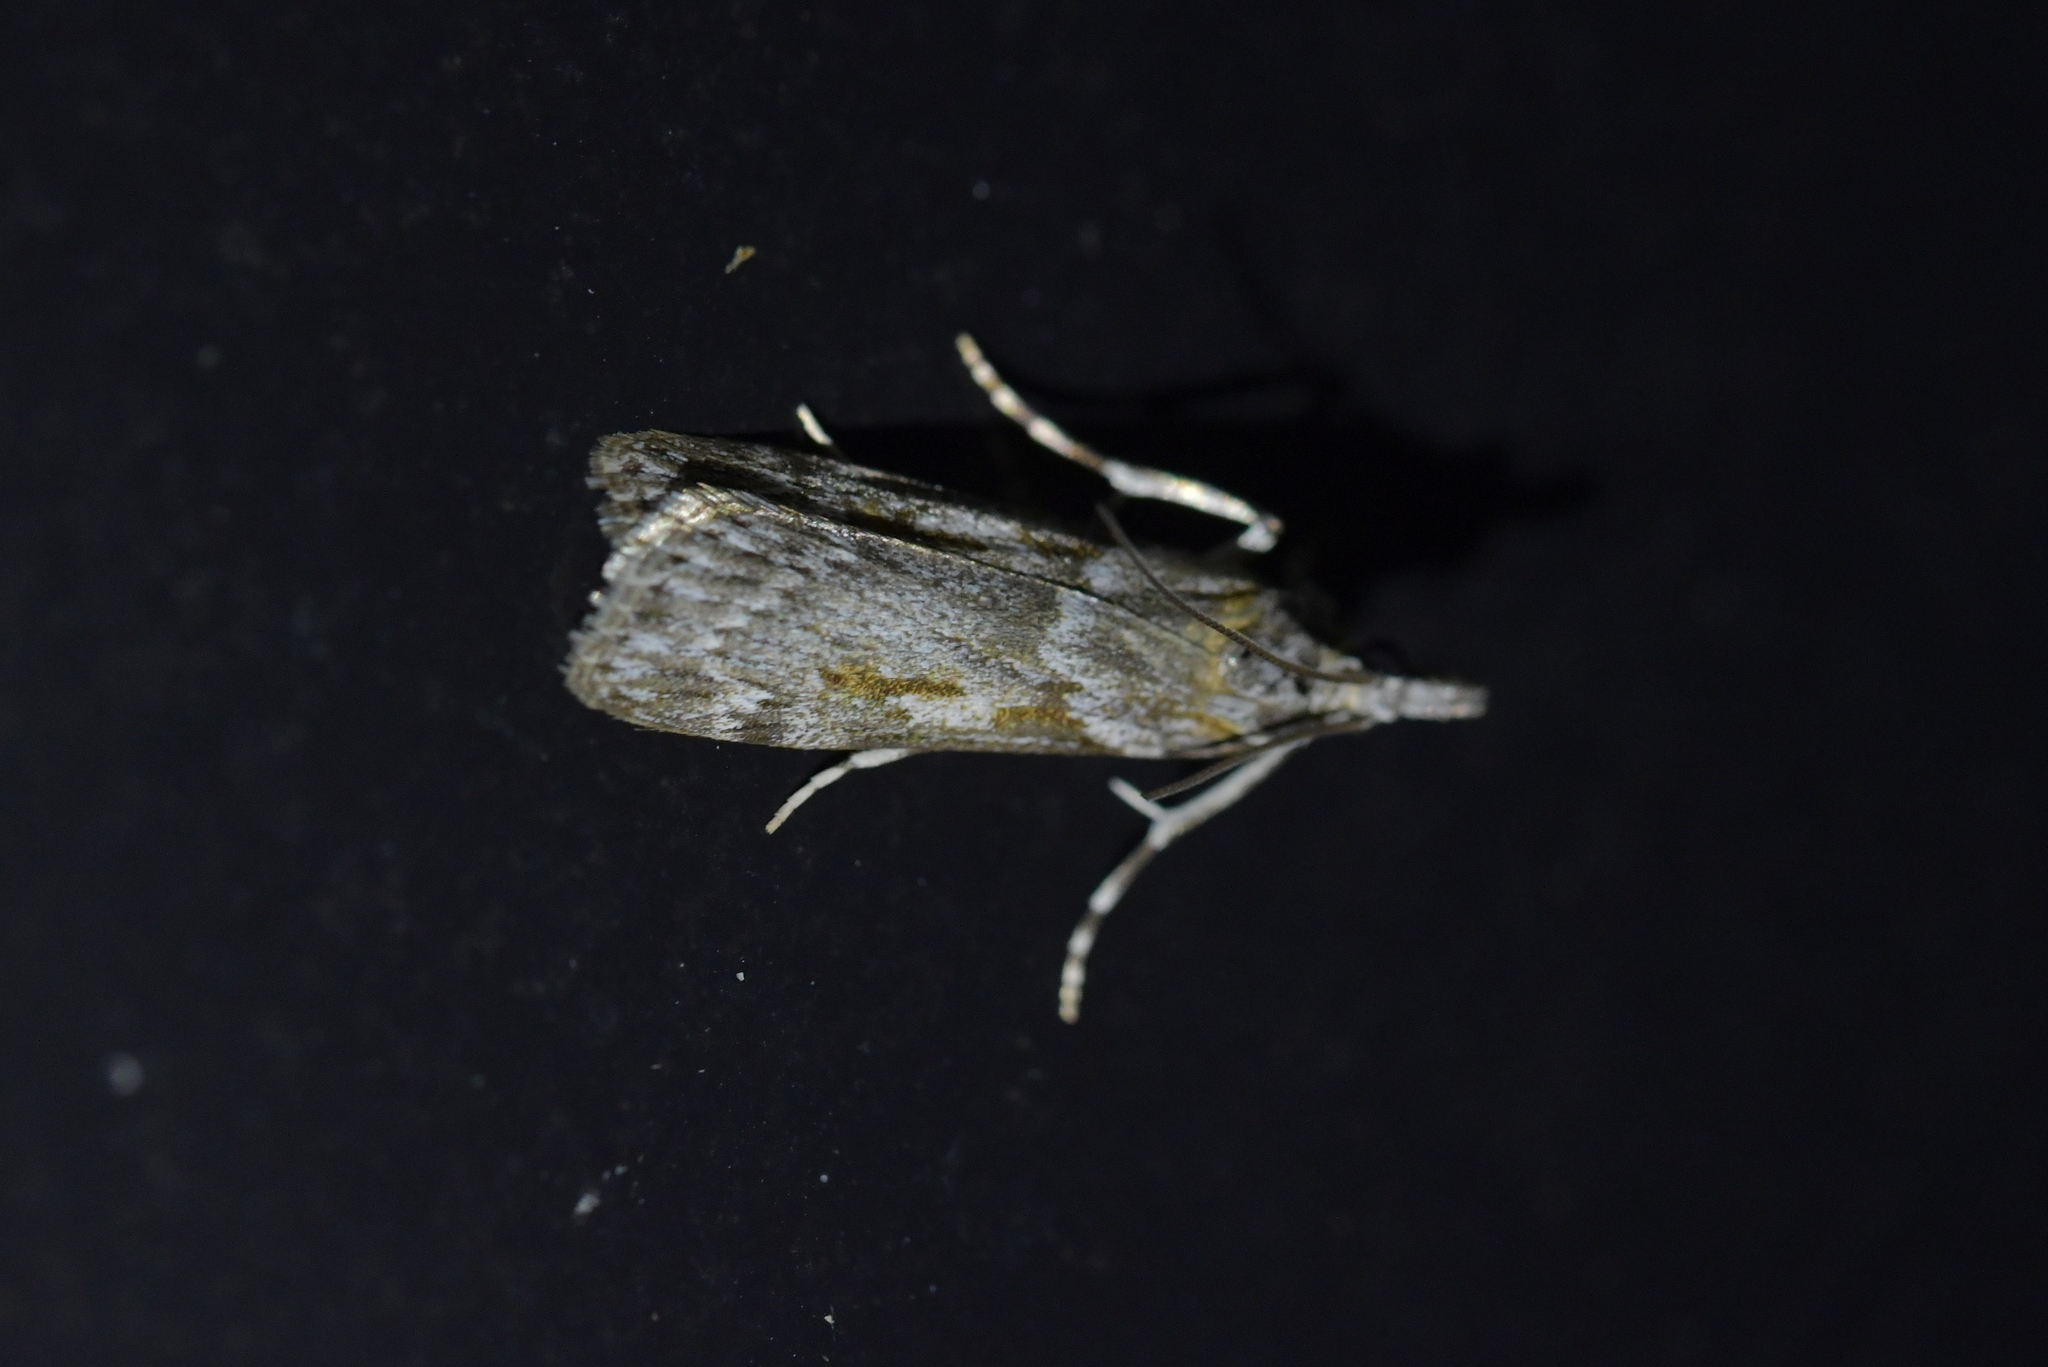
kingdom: Animalia
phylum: Arthropoda
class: Insecta
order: Lepidoptera
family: Crambidae
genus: Scoparia
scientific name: Scoparia halopis
